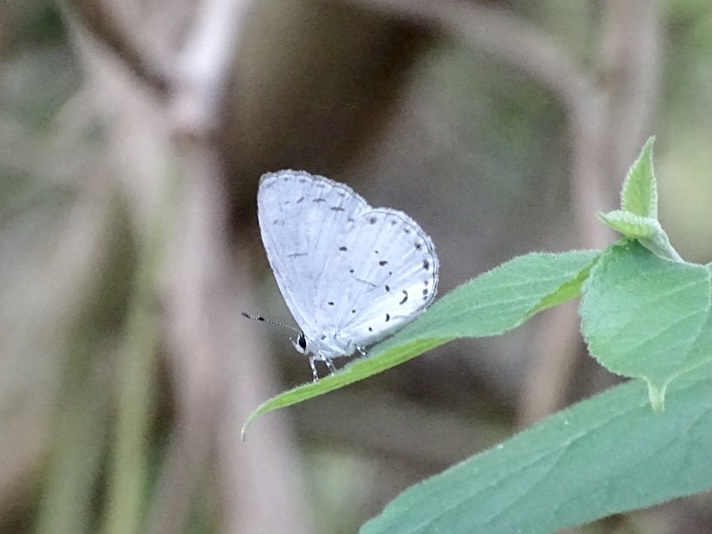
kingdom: Animalia
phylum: Arthropoda
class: Insecta
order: Lepidoptera
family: Lycaenidae
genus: Udara
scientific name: Udara albocaerulea
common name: Albocerulean
